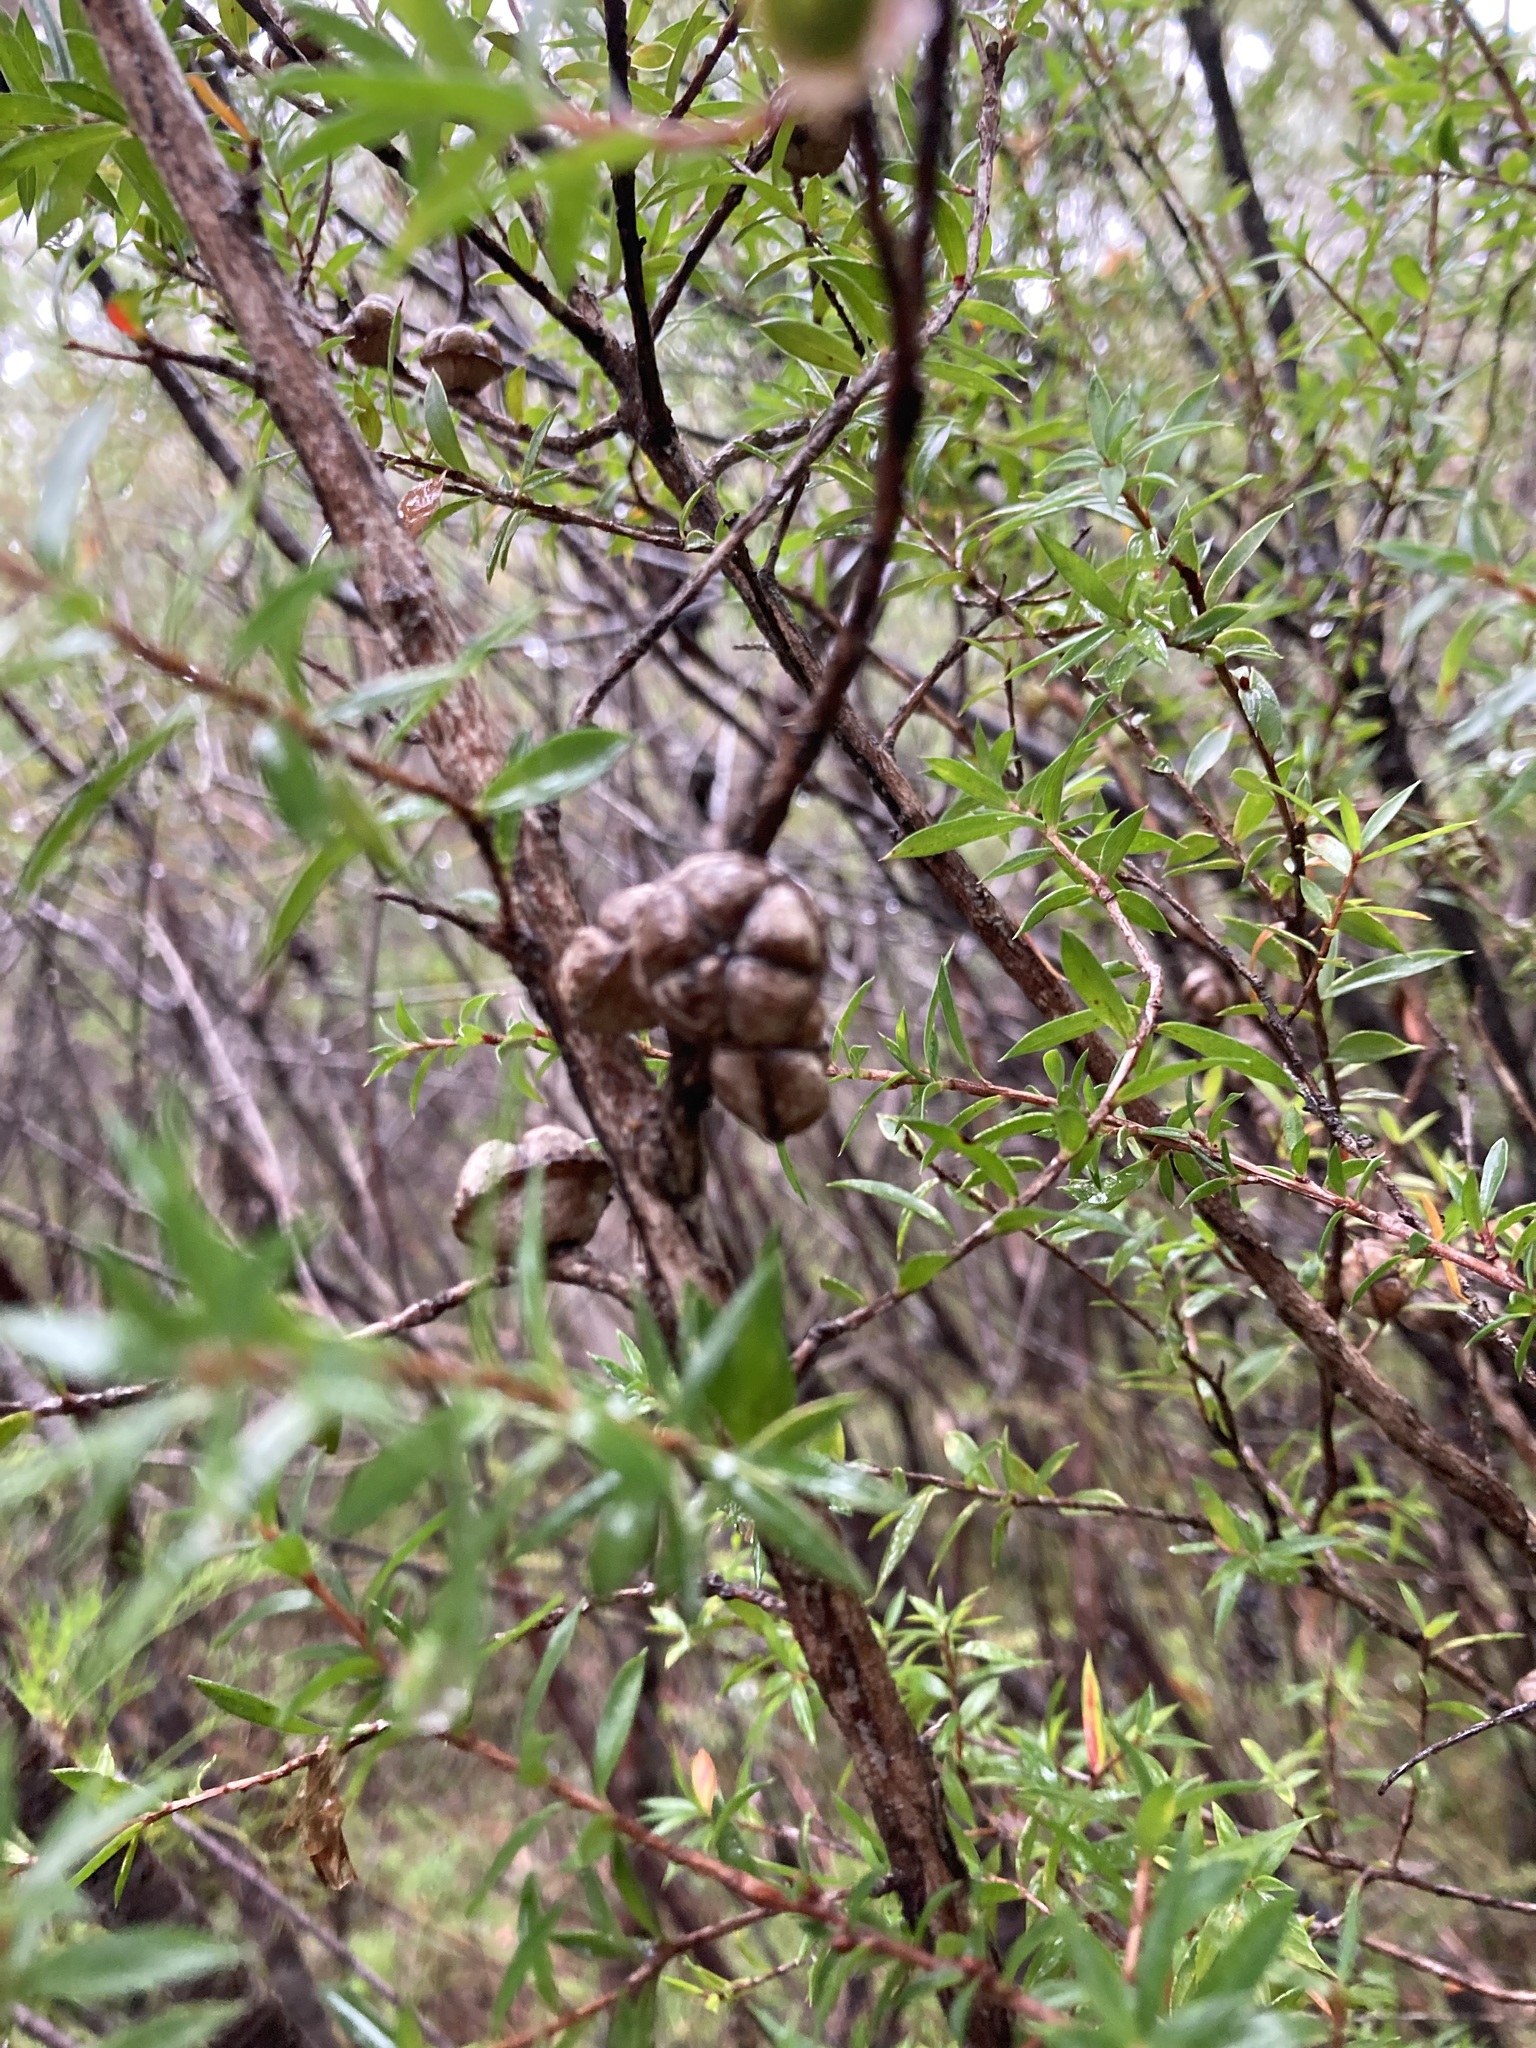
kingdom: Plantae
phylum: Tracheophyta
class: Magnoliopsida
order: Myrtales
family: Myrtaceae
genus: Leptospermum
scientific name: Leptospermum squarrosum
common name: Peach-blossom teatree
